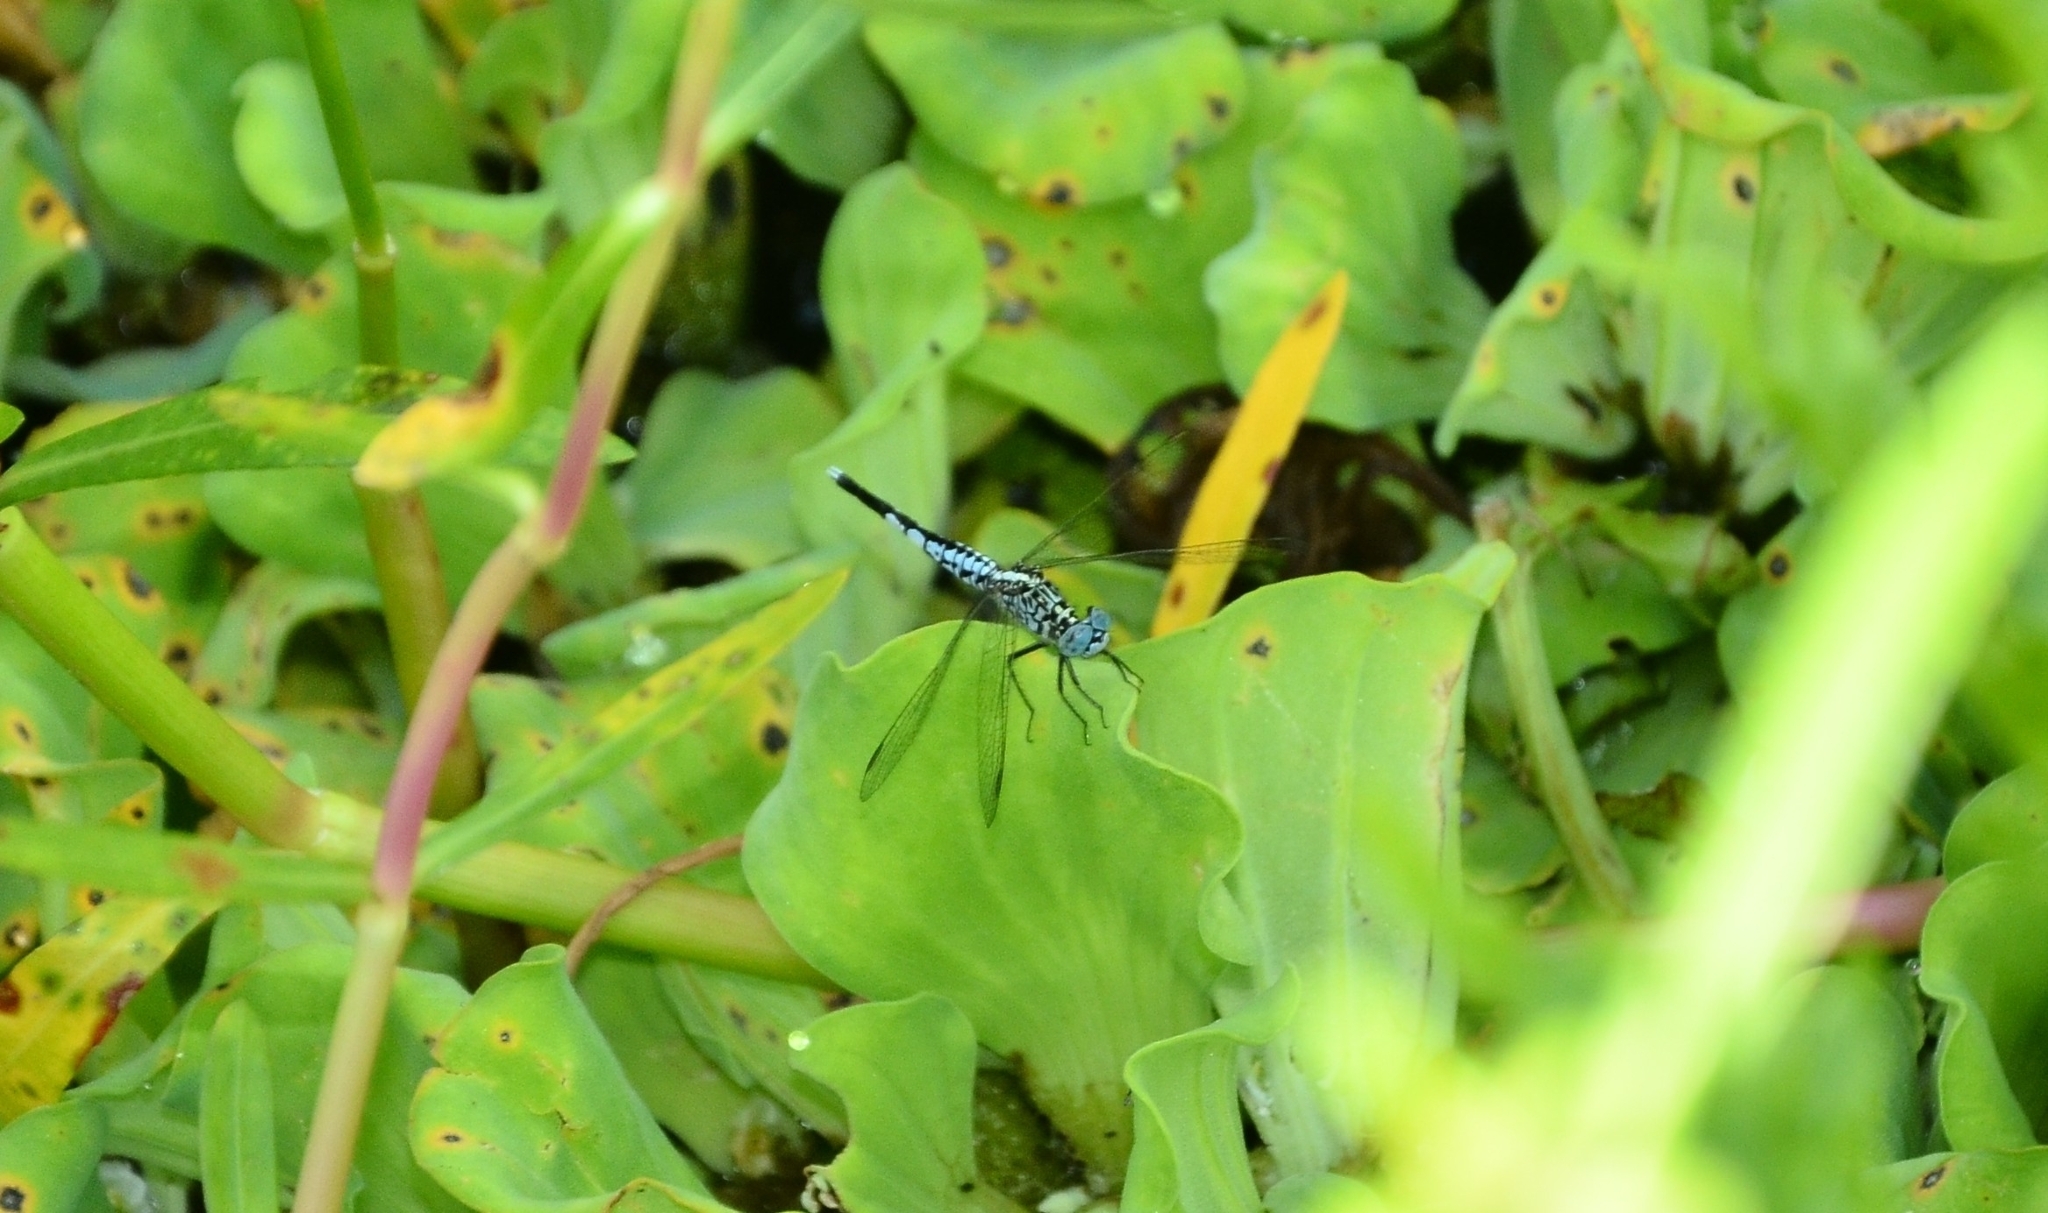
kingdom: Animalia
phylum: Arthropoda
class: Insecta
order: Odonata
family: Libellulidae
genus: Acisoma
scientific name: Acisoma panorpoides
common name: Asian pintail
